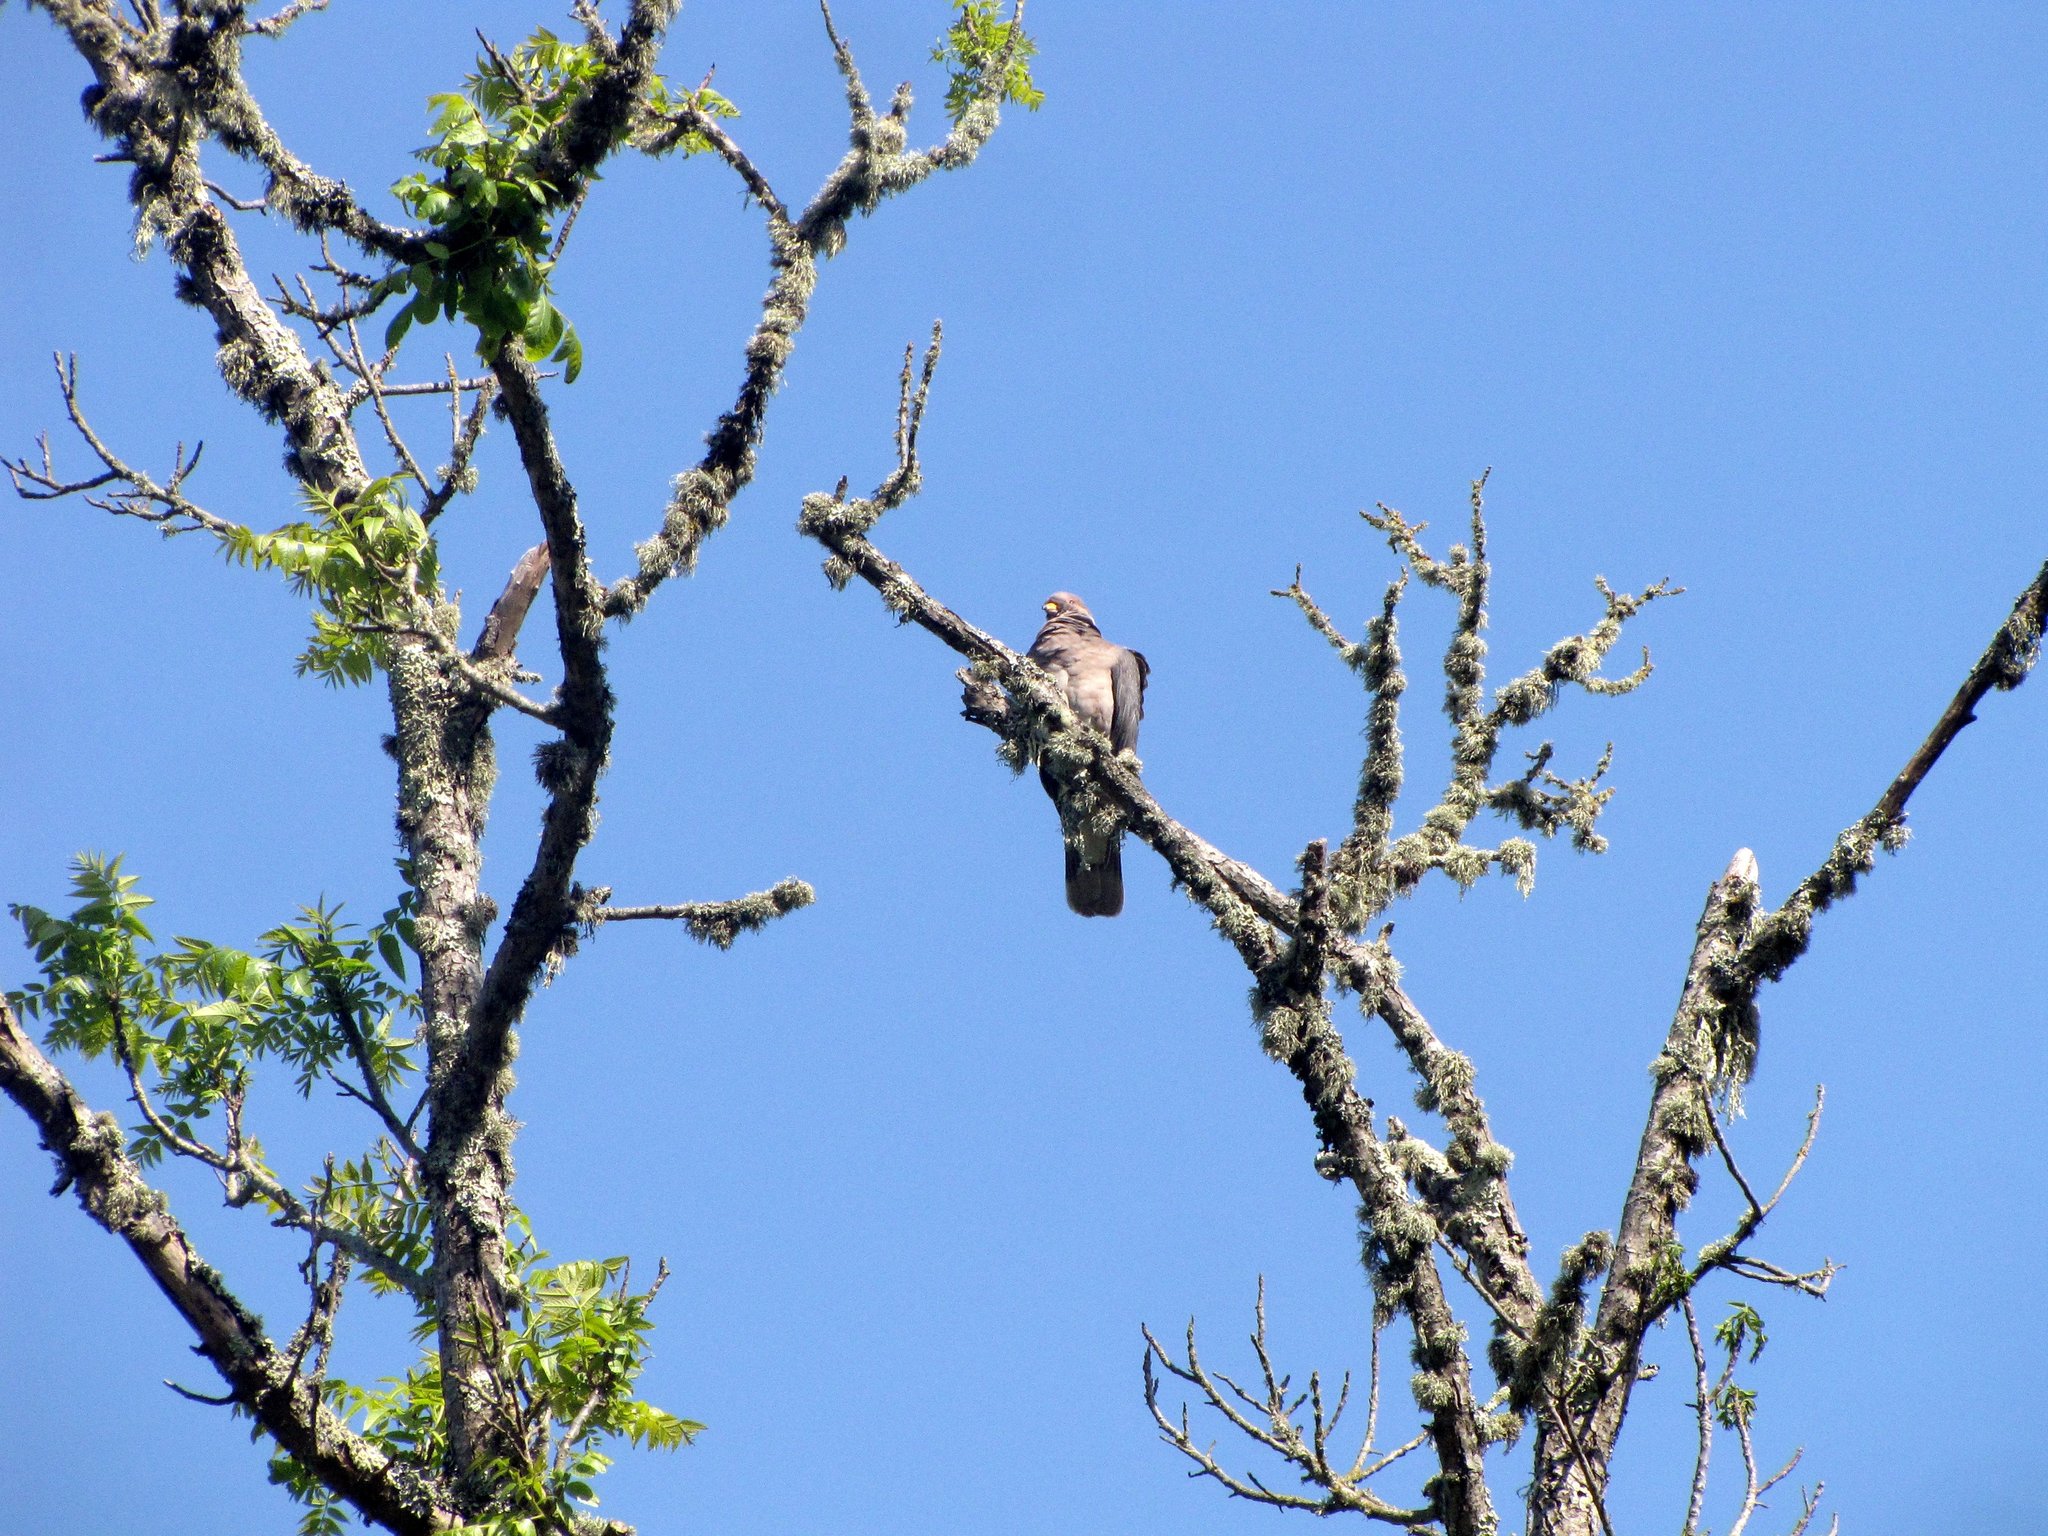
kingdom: Animalia
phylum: Chordata
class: Aves
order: Columbiformes
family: Columbidae
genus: Patagioenas
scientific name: Patagioenas fasciata
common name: Band-tailed pigeon
